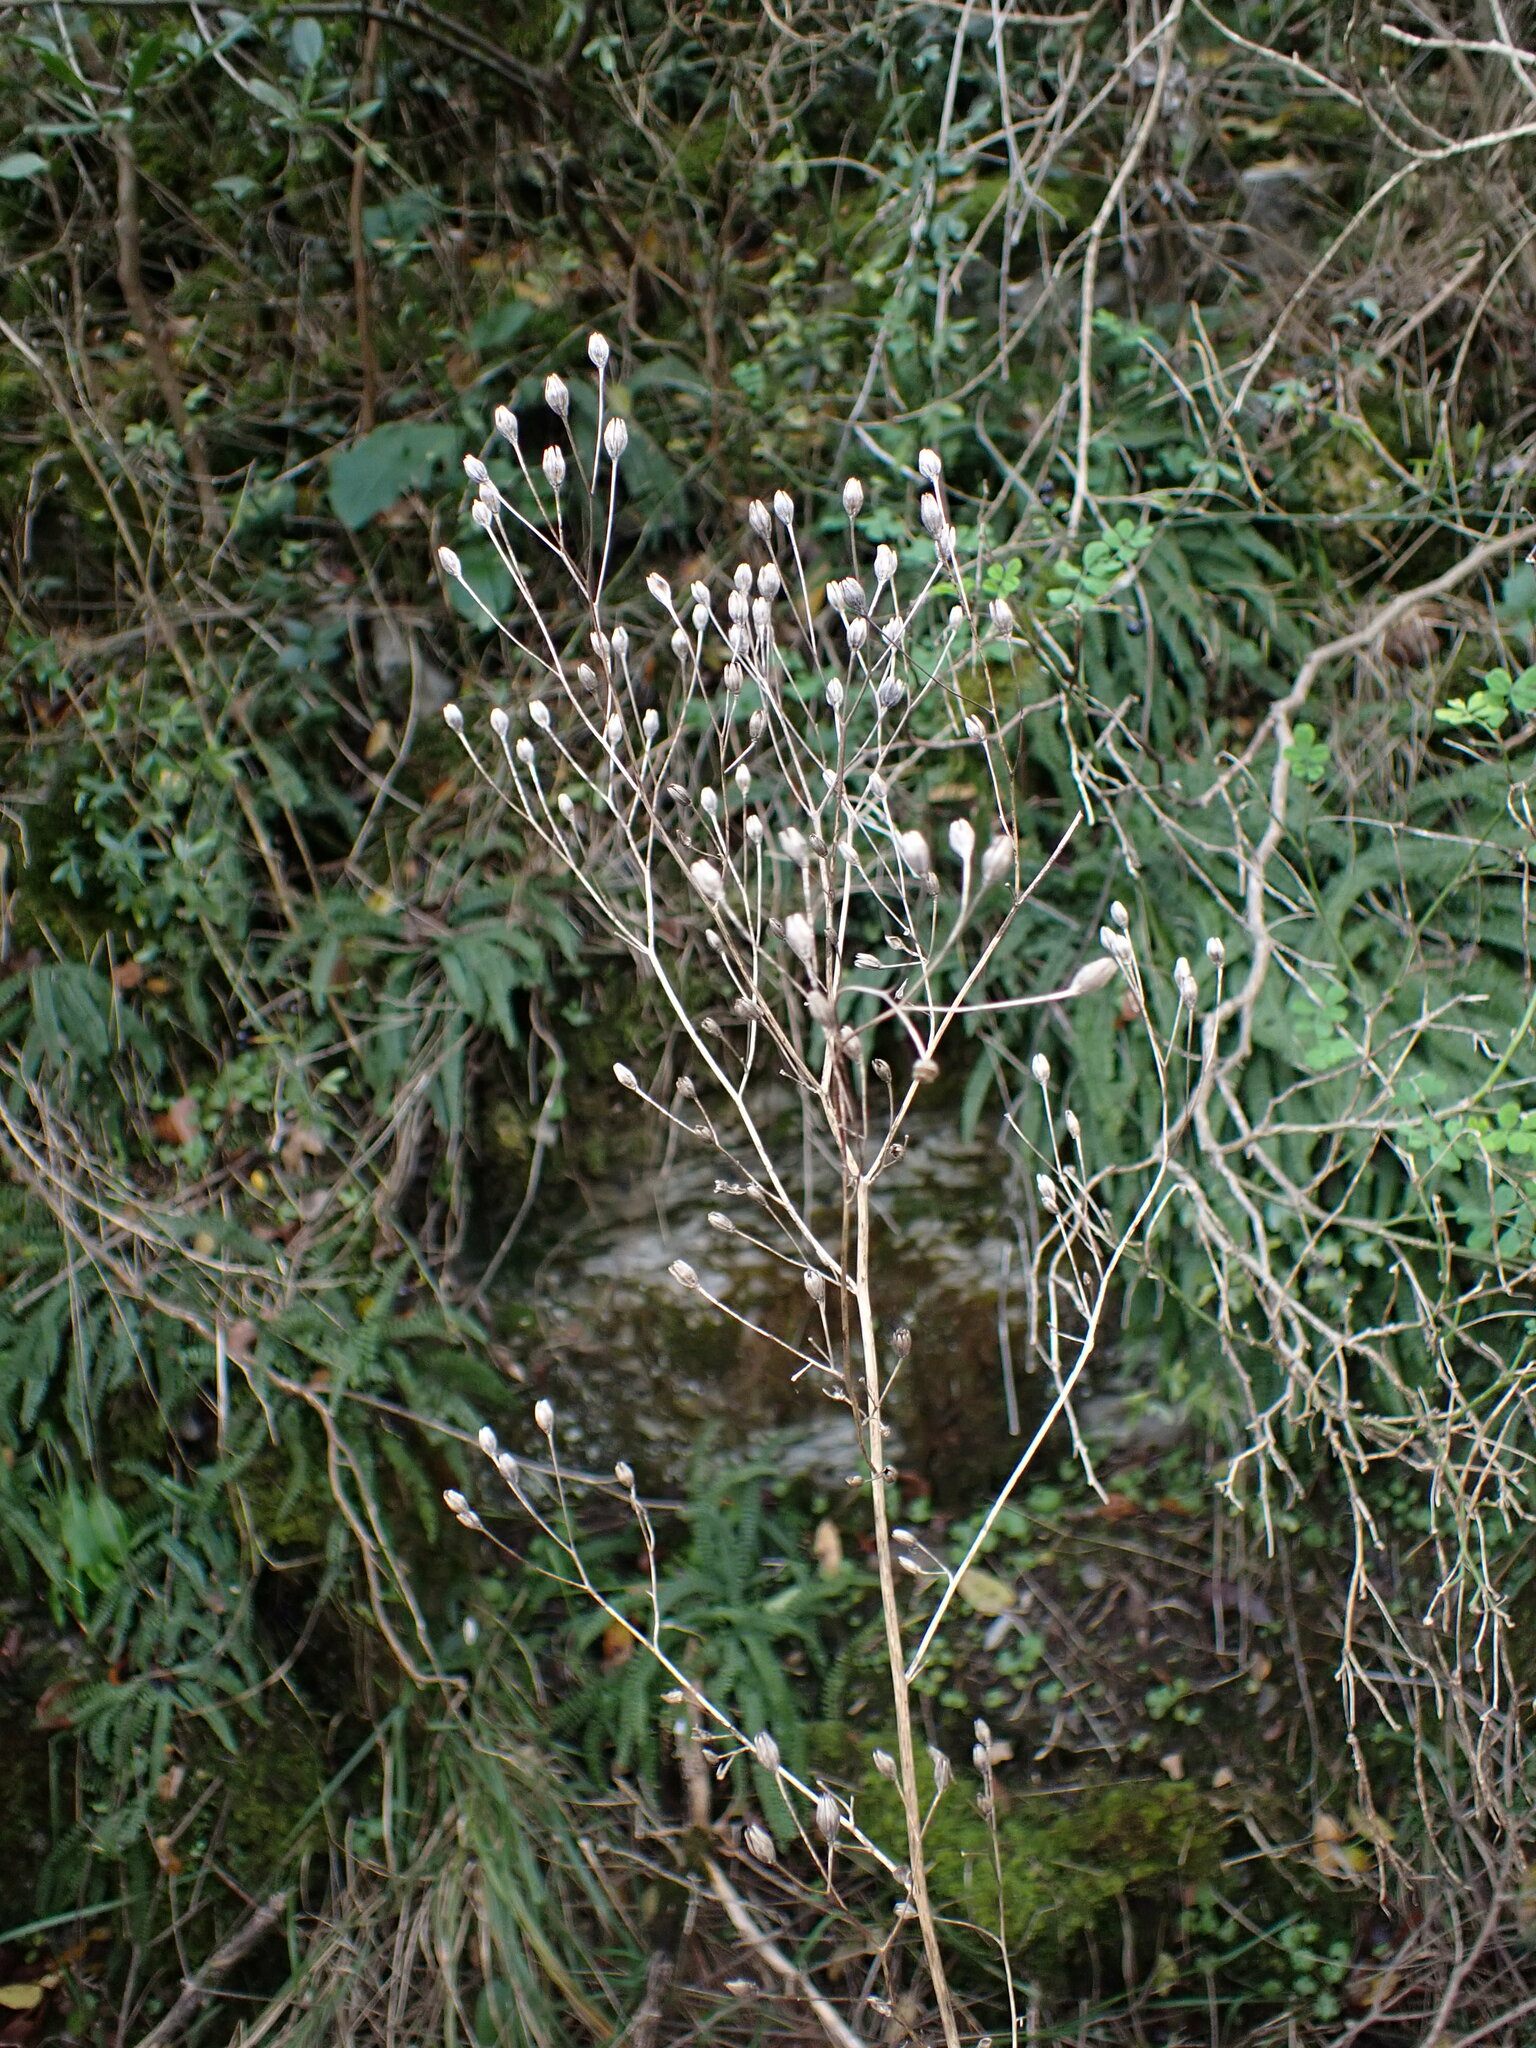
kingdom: Plantae
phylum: Tracheophyta
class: Magnoliopsida
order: Asterales
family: Asteraceae
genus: Lapsana
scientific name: Lapsana communis
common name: Nipplewort
